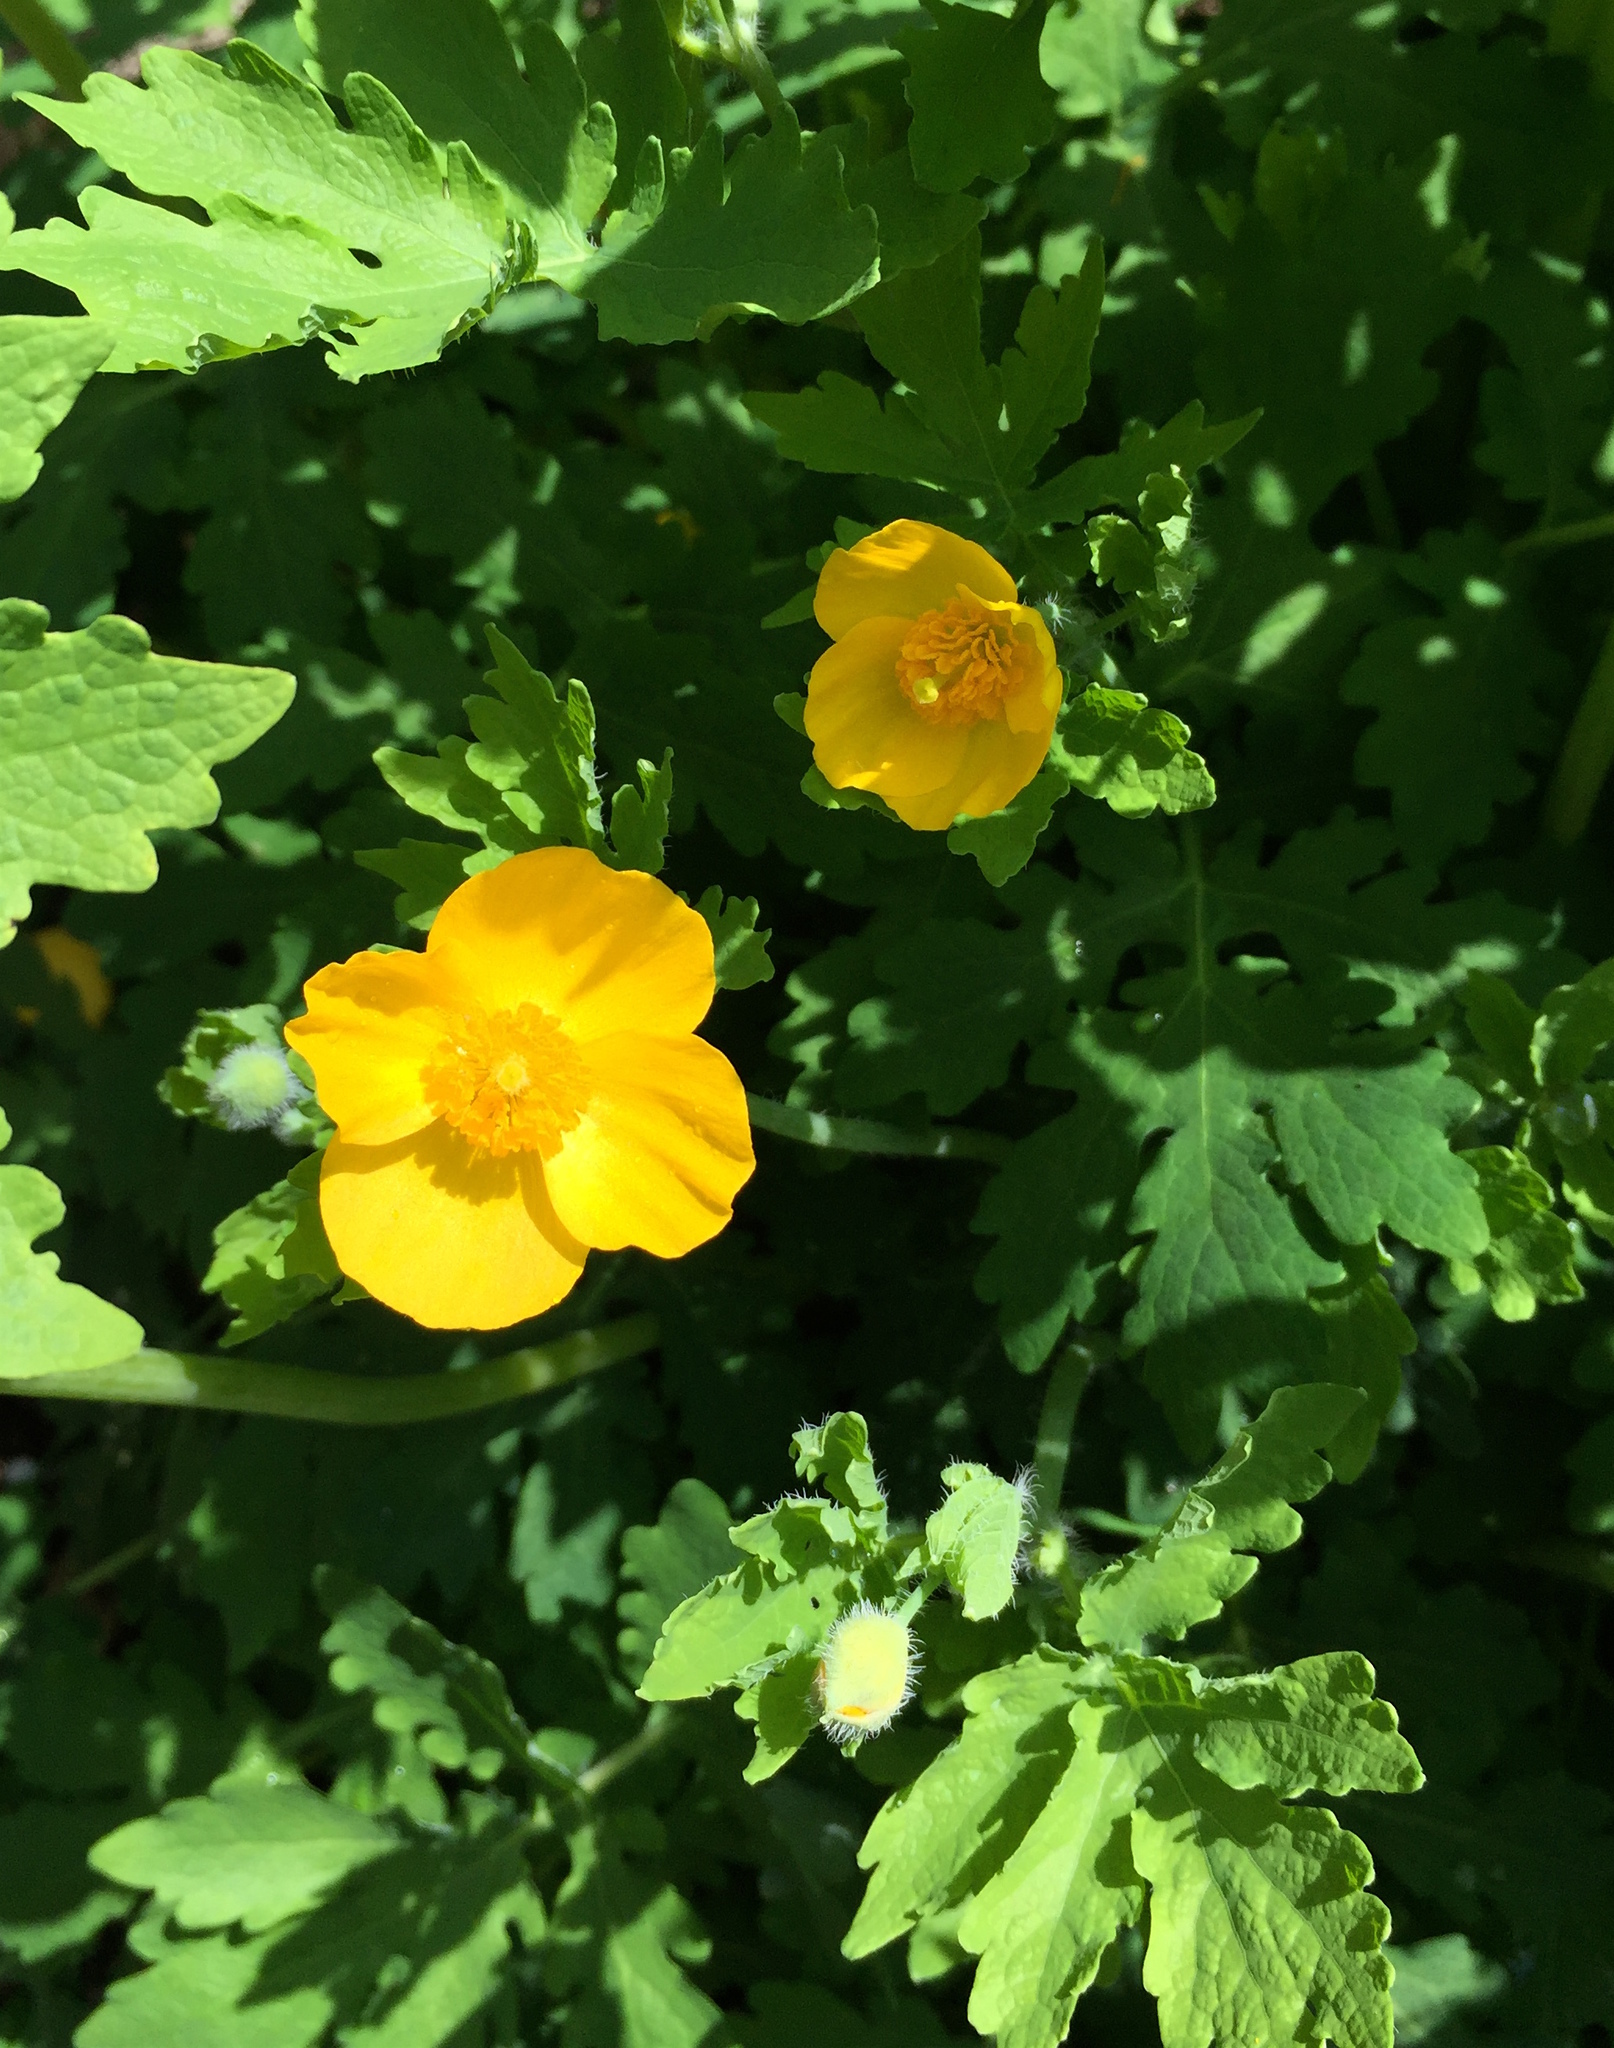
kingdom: Plantae
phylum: Tracheophyta
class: Magnoliopsida
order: Ranunculales
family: Papaveraceae
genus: Stylophorum
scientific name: Stylophorum diphyllum
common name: Celandine poppy
